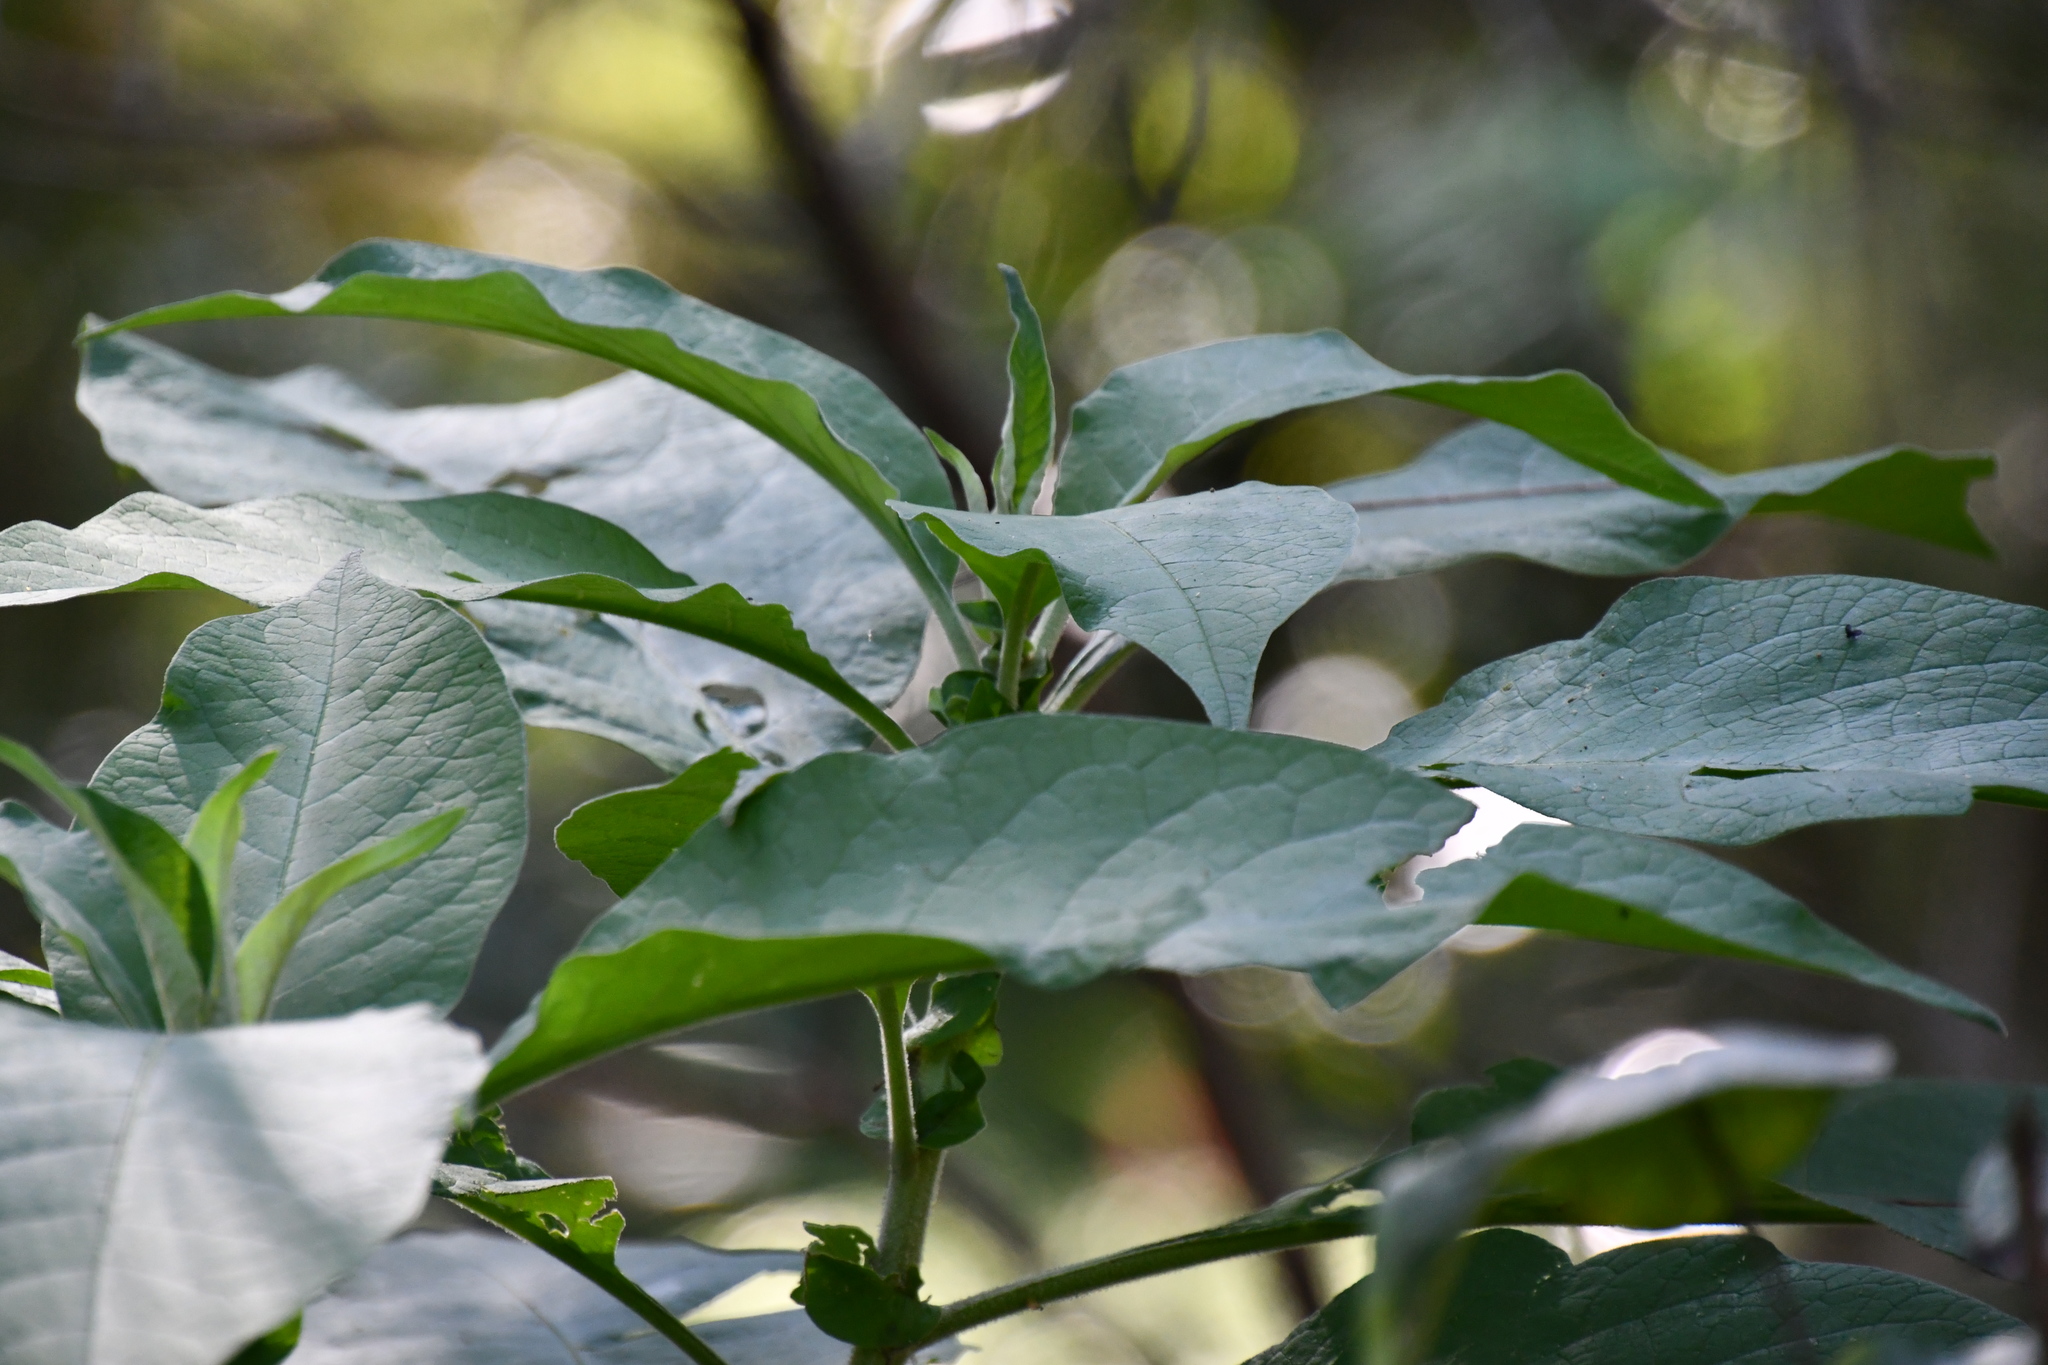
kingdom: Plantae
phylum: Tracheophyta
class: Magnoliopsida
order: Solanales
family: Solanaceae
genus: Solanum
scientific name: Solanum mauritianum
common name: Earleaf nightshade
